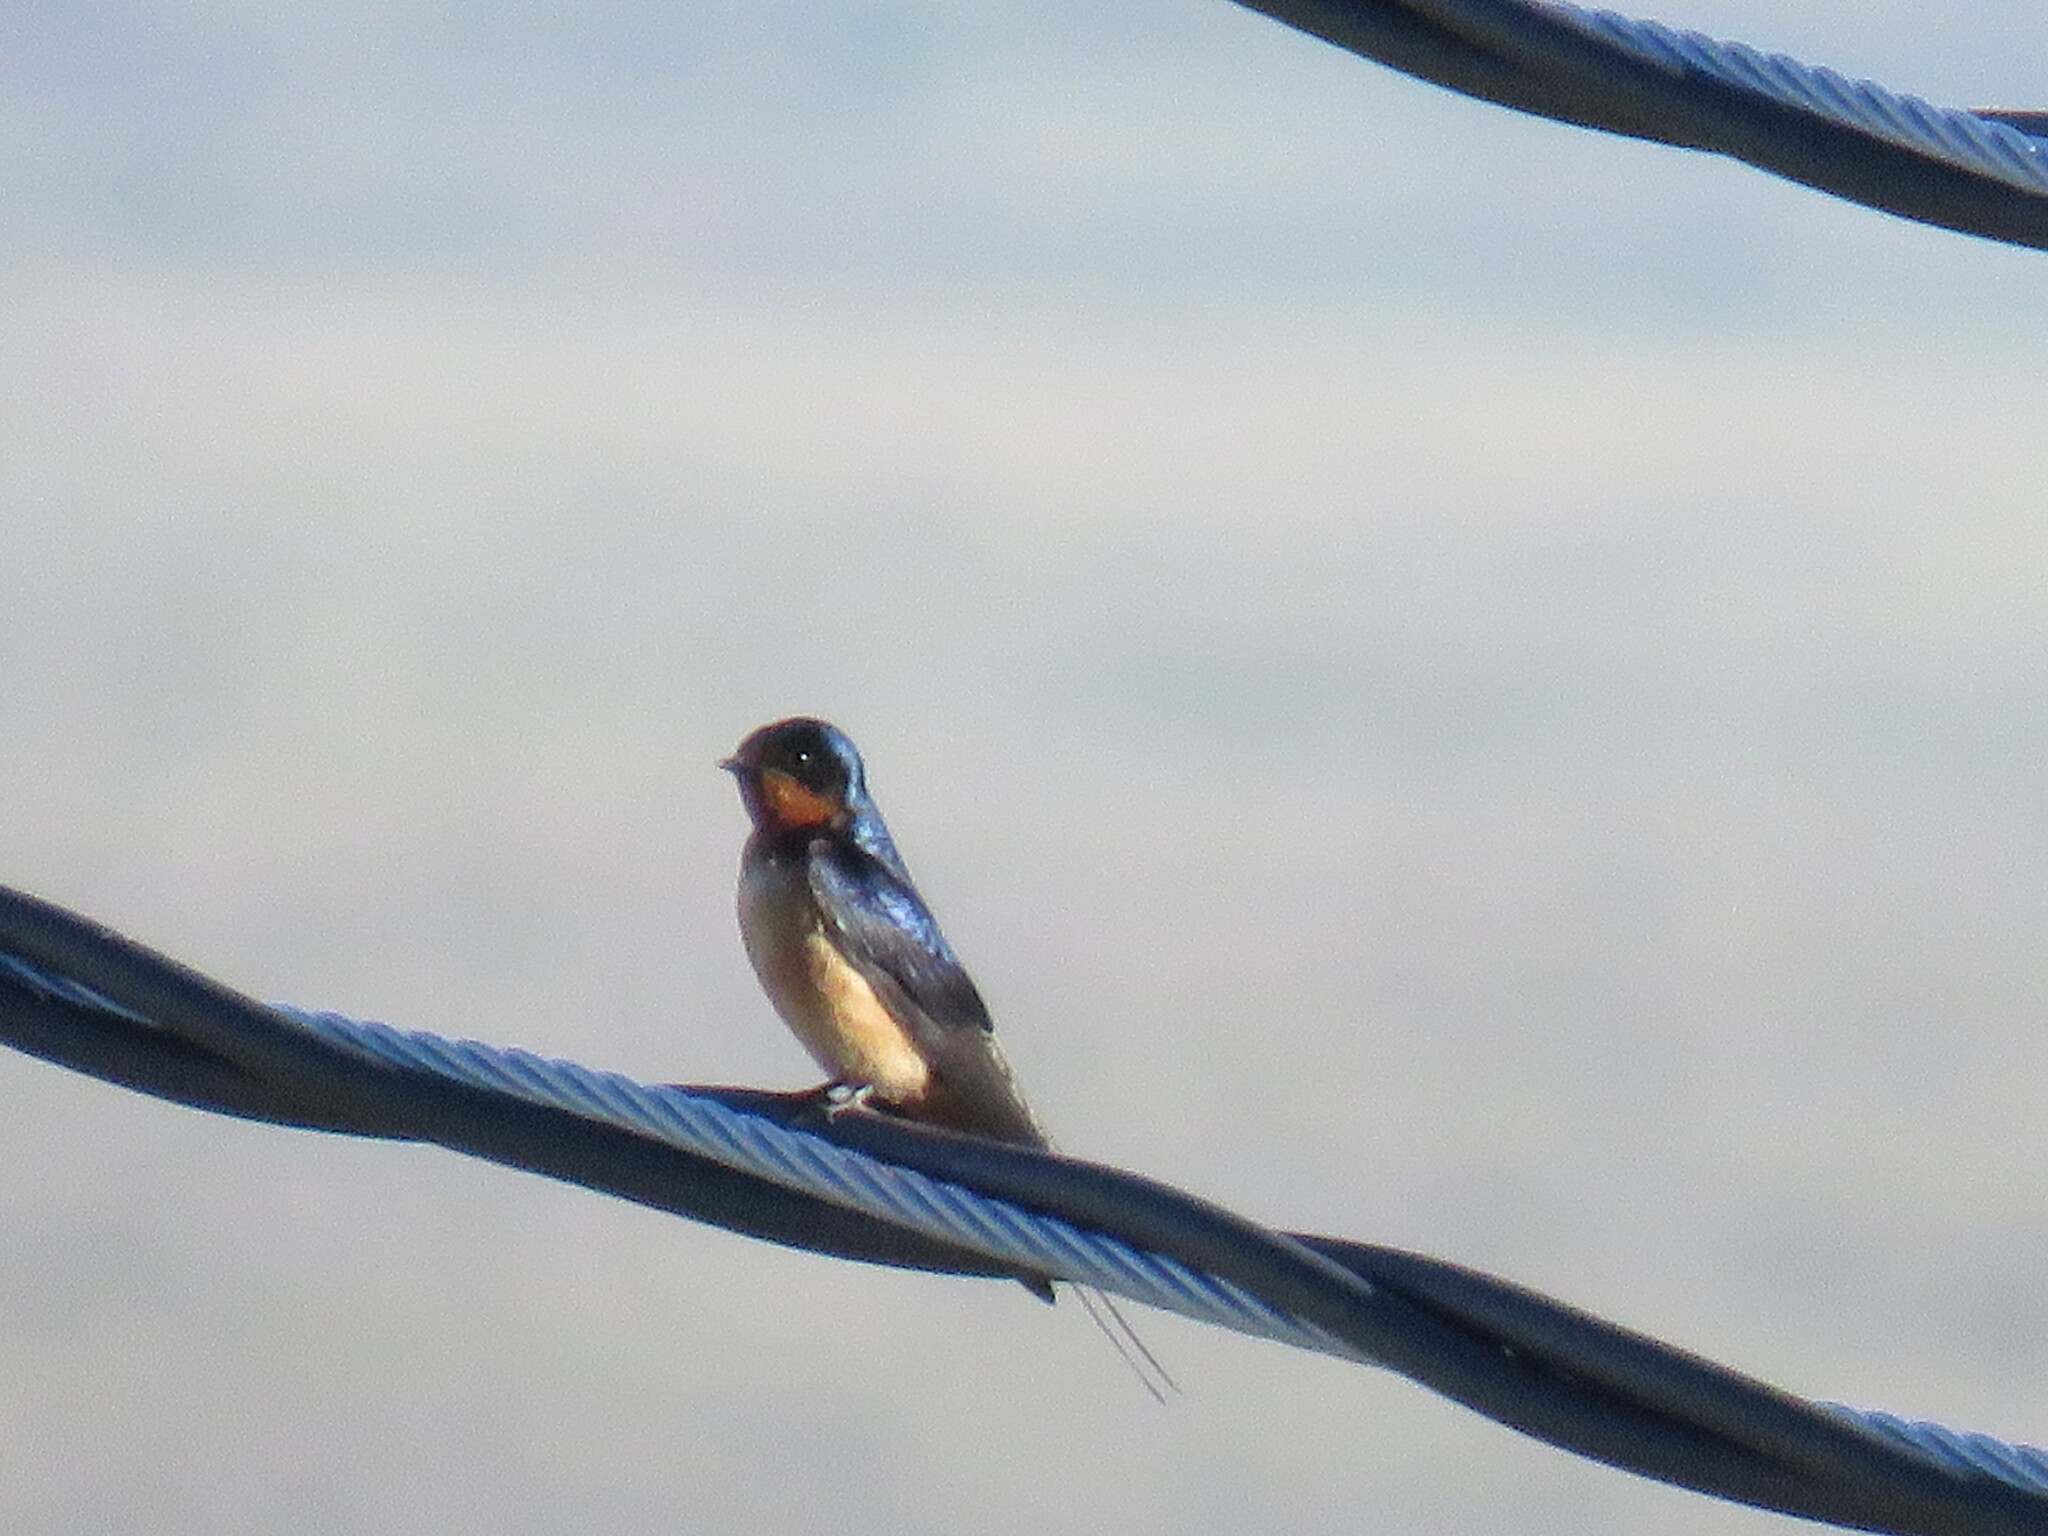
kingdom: Animalia
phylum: Chordata
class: Aves
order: Passeriformes
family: Hirundinidae
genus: Hirundo
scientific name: Hirundo rustica
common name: Barn swallow
